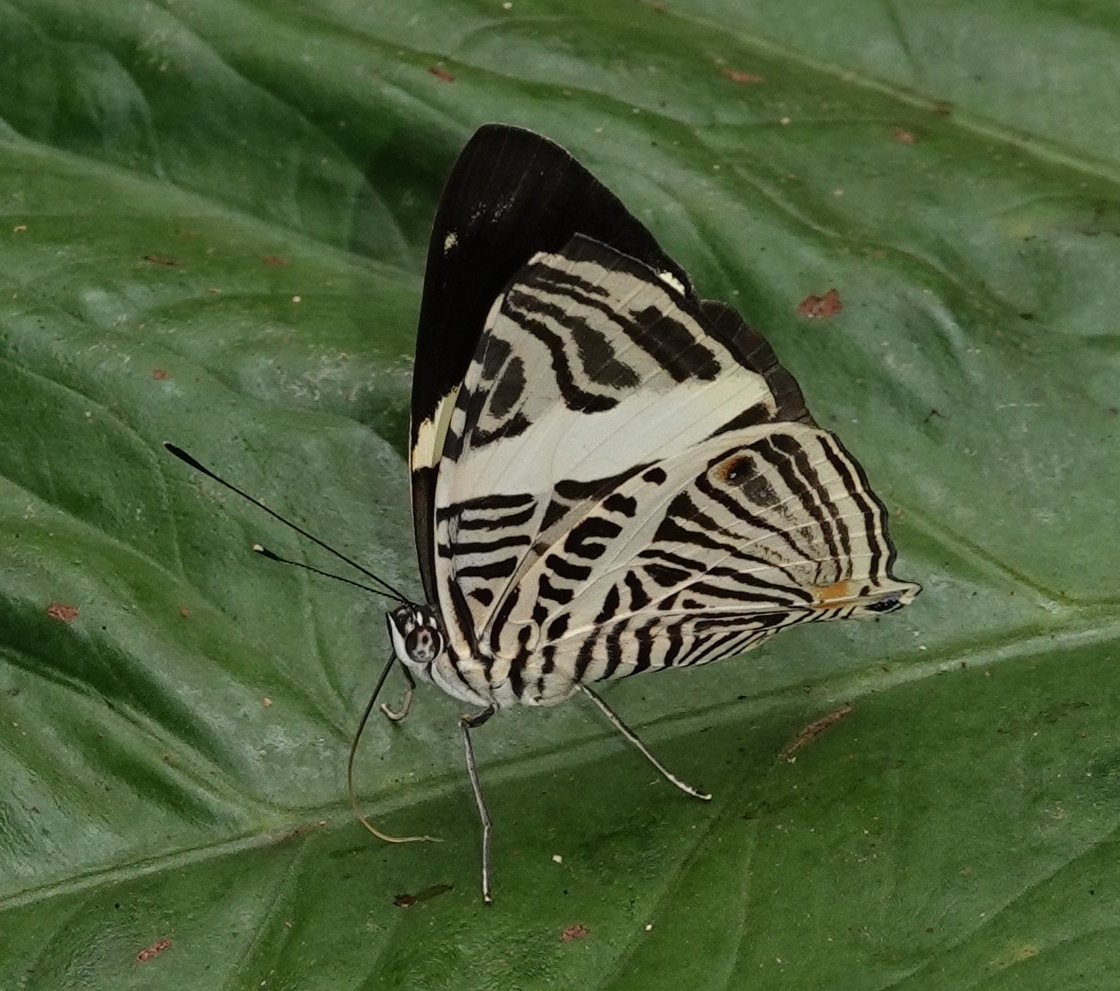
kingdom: Animalia
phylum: Arthropoda
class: Insecta
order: Lepidoptera
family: Nymphalidae
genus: Colobura
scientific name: Colobura dirce
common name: Dirce beauty
